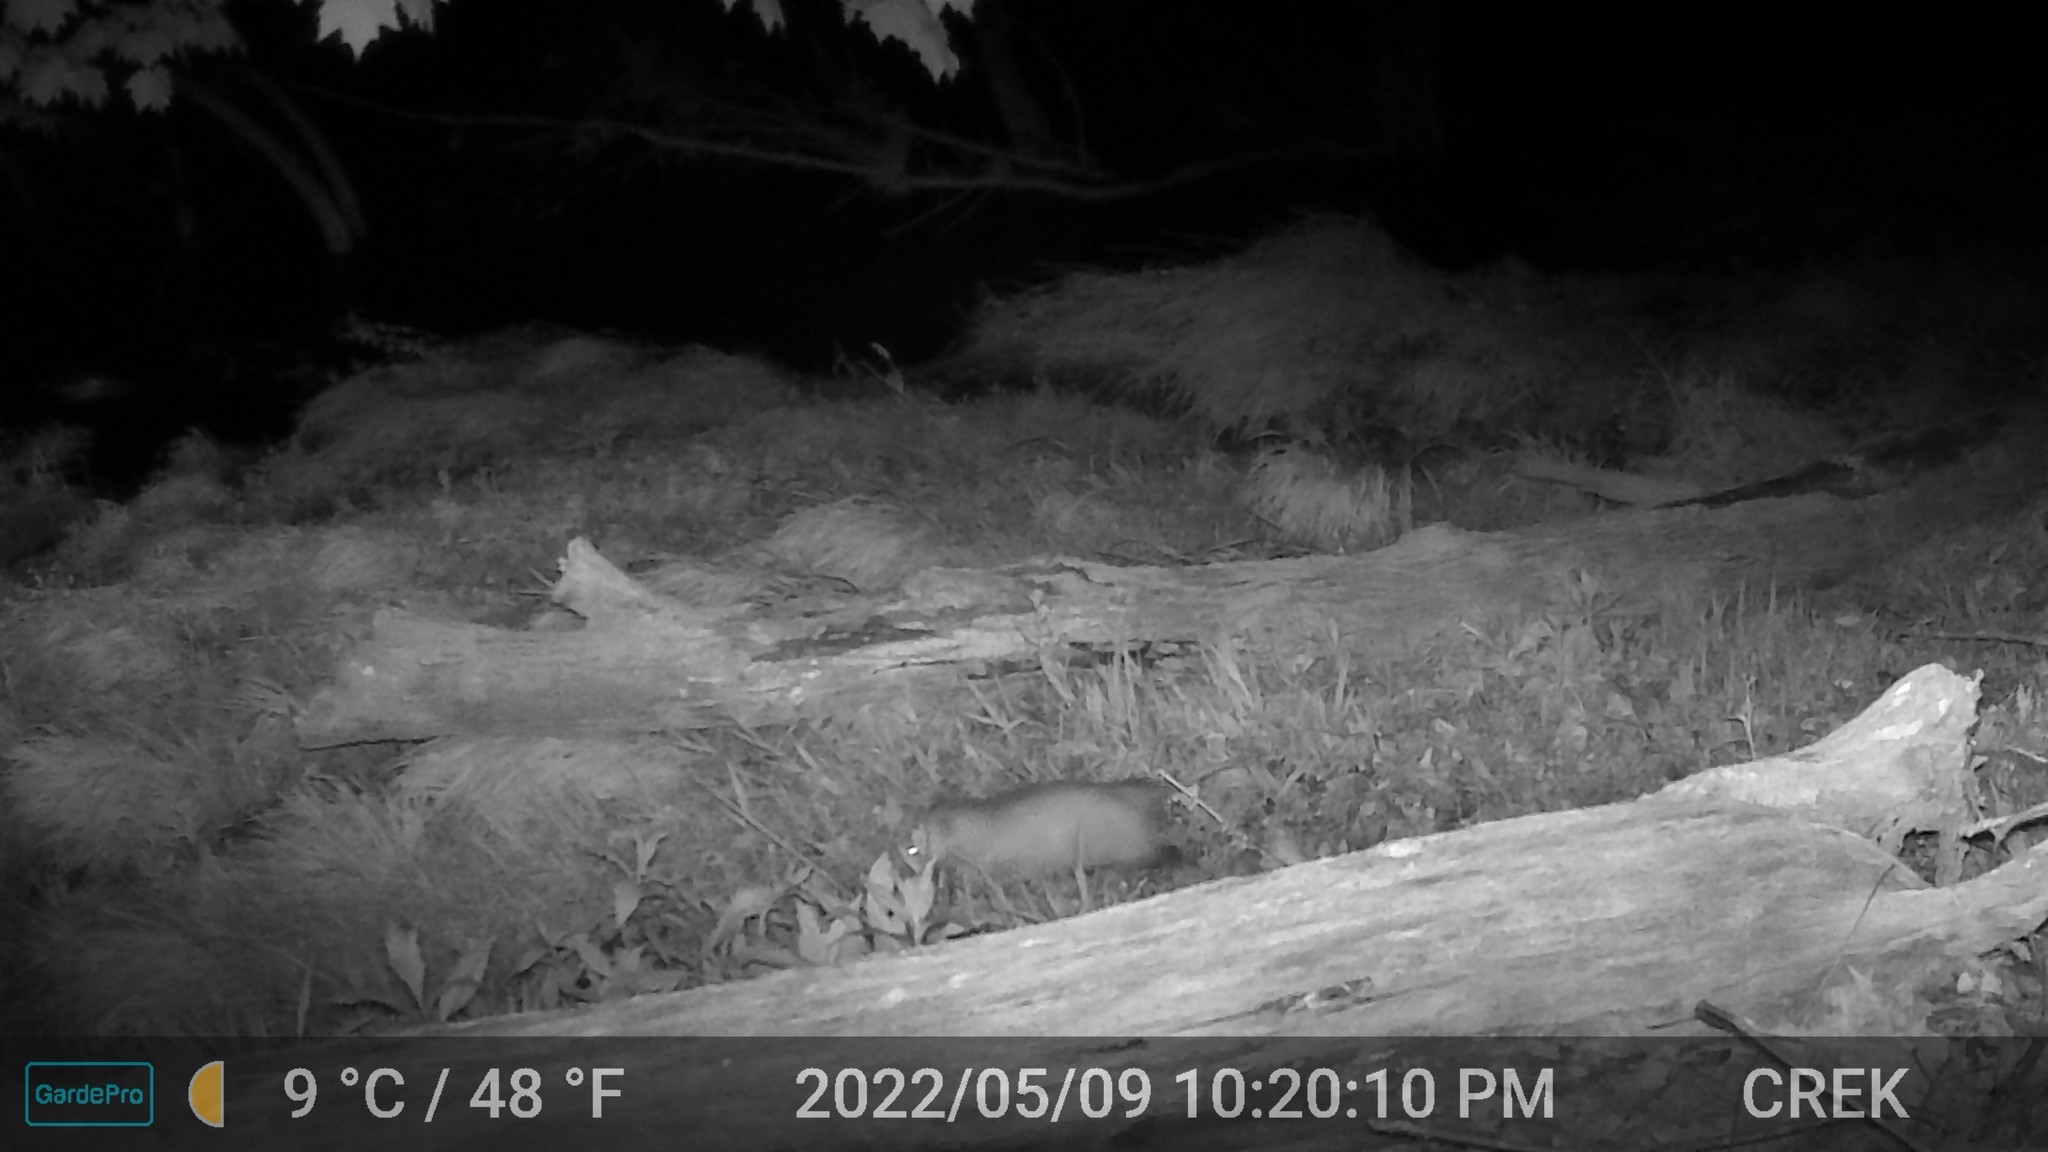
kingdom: Animalia
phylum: Chordata
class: Mammalia
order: Didelphimorphia
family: Didelphidae
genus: Didelphis
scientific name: Didelphis virginiana
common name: Virginia opossum
